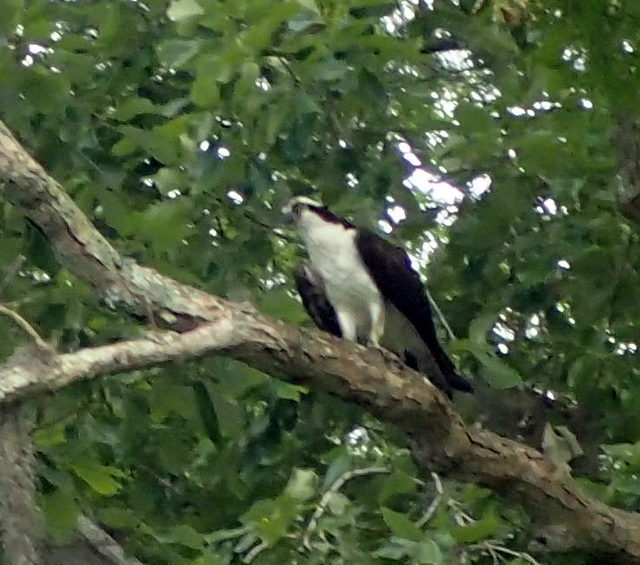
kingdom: Animalia
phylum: Chordata
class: Aves
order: Accipitriformes
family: Pandionidae
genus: Pandion
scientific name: Pandion haliaetus
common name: Osprey
